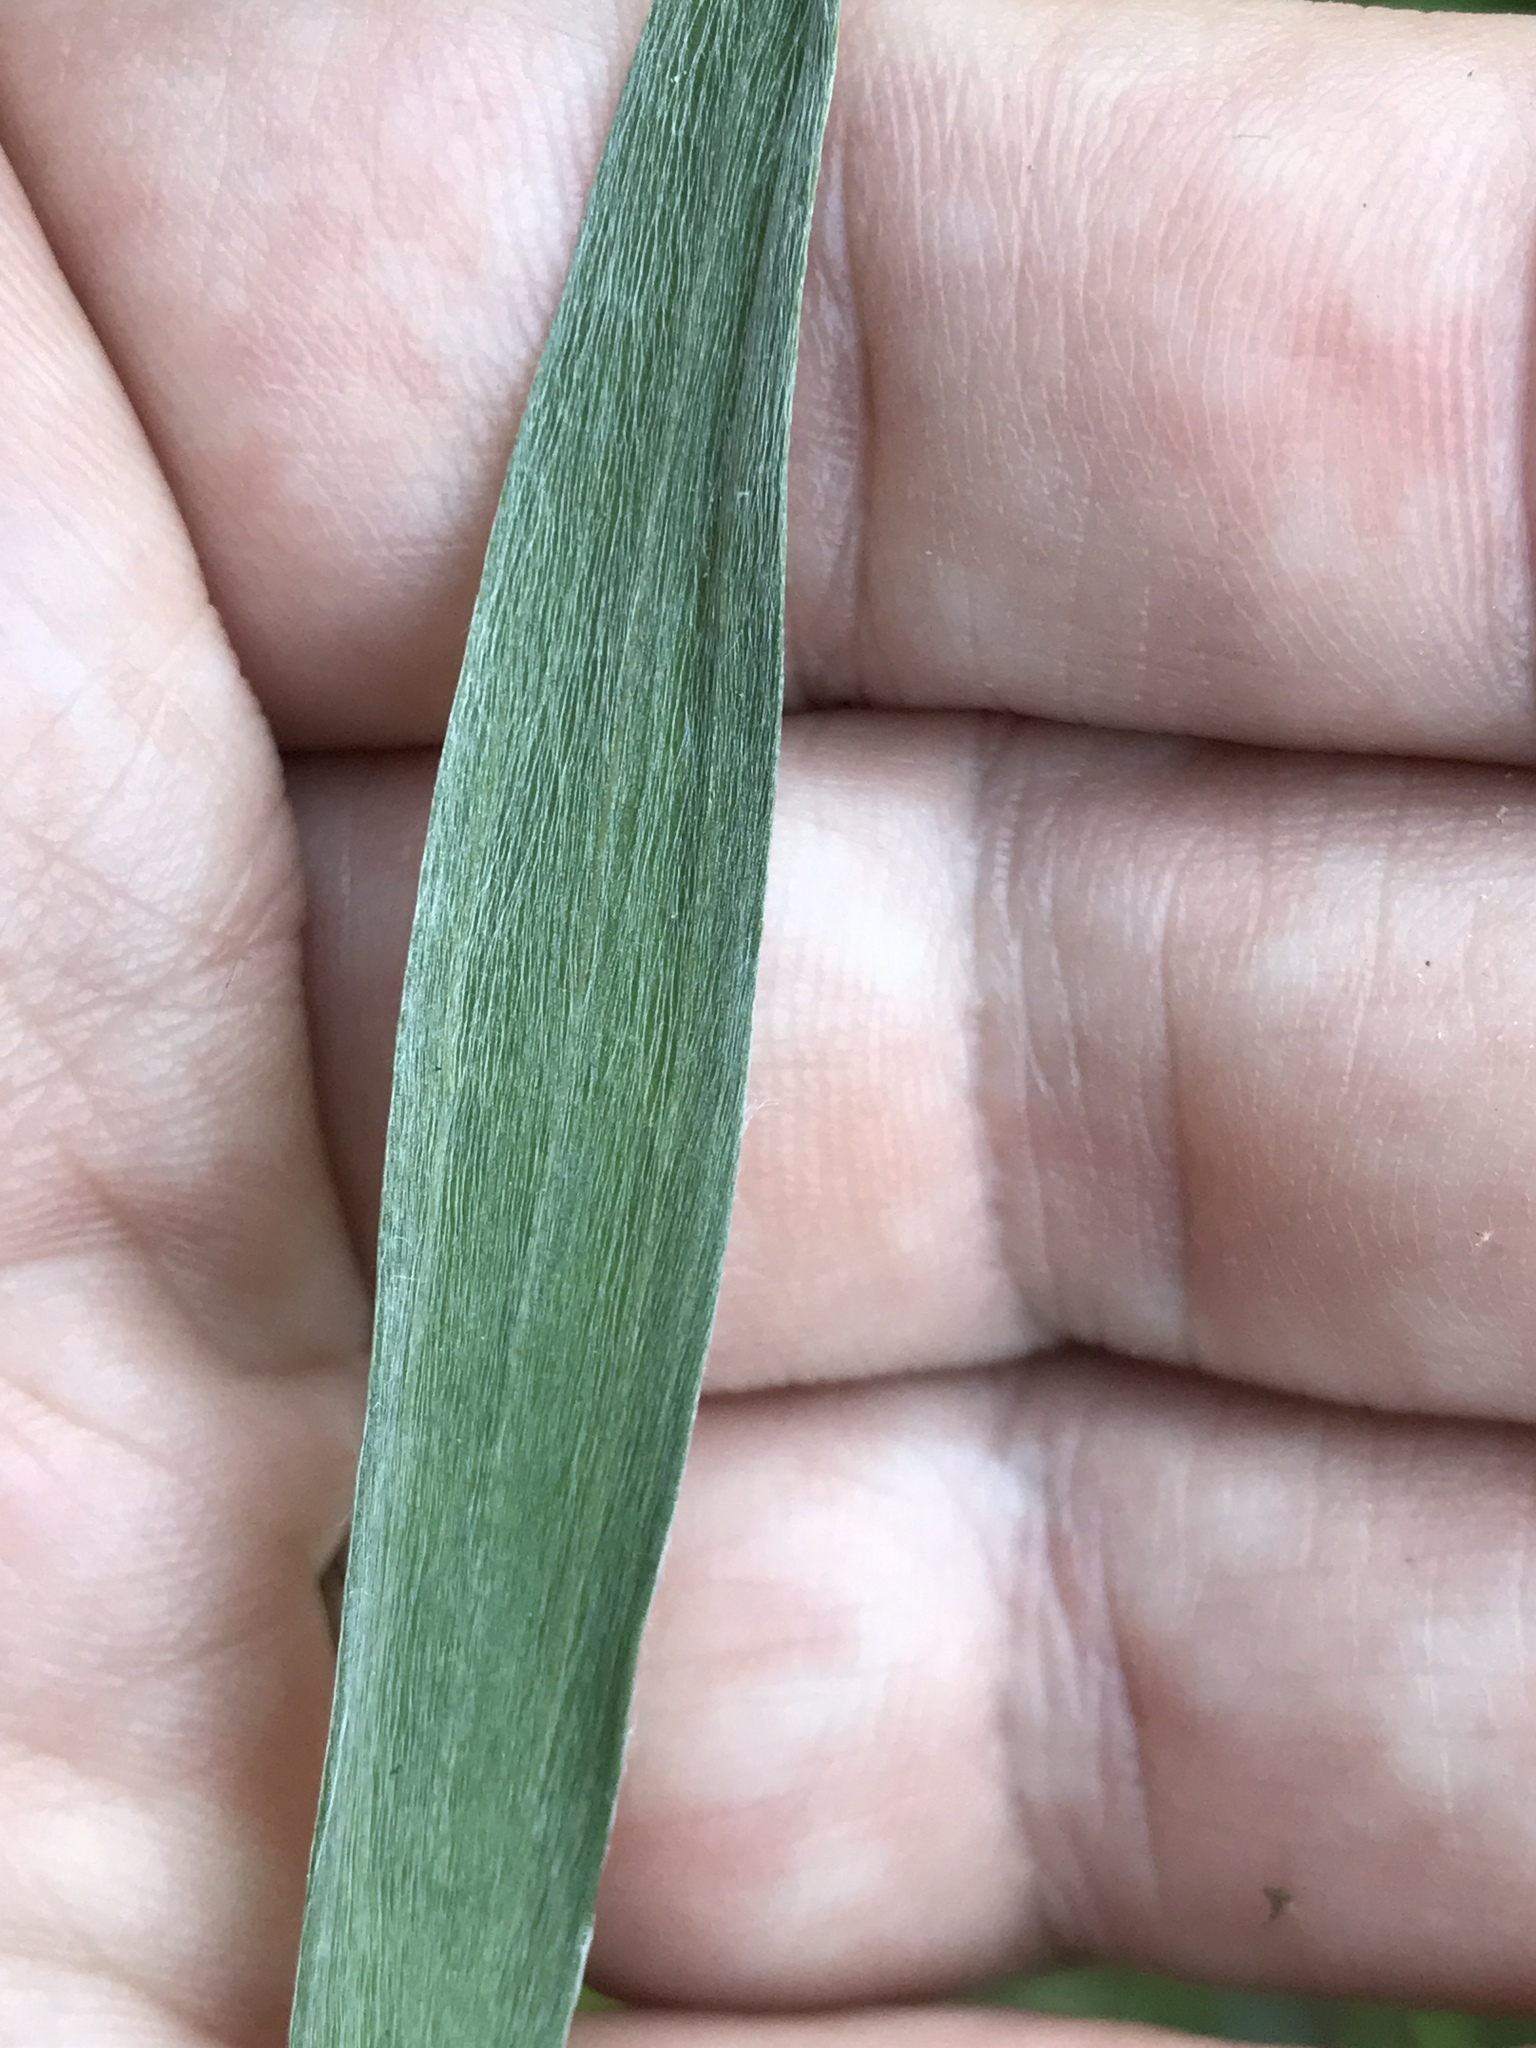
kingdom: Plantae
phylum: Tracheophyta
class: Magnoliopsida
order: Asterales
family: Asteraceae
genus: Pityopsis
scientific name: Pityopsis aspera
